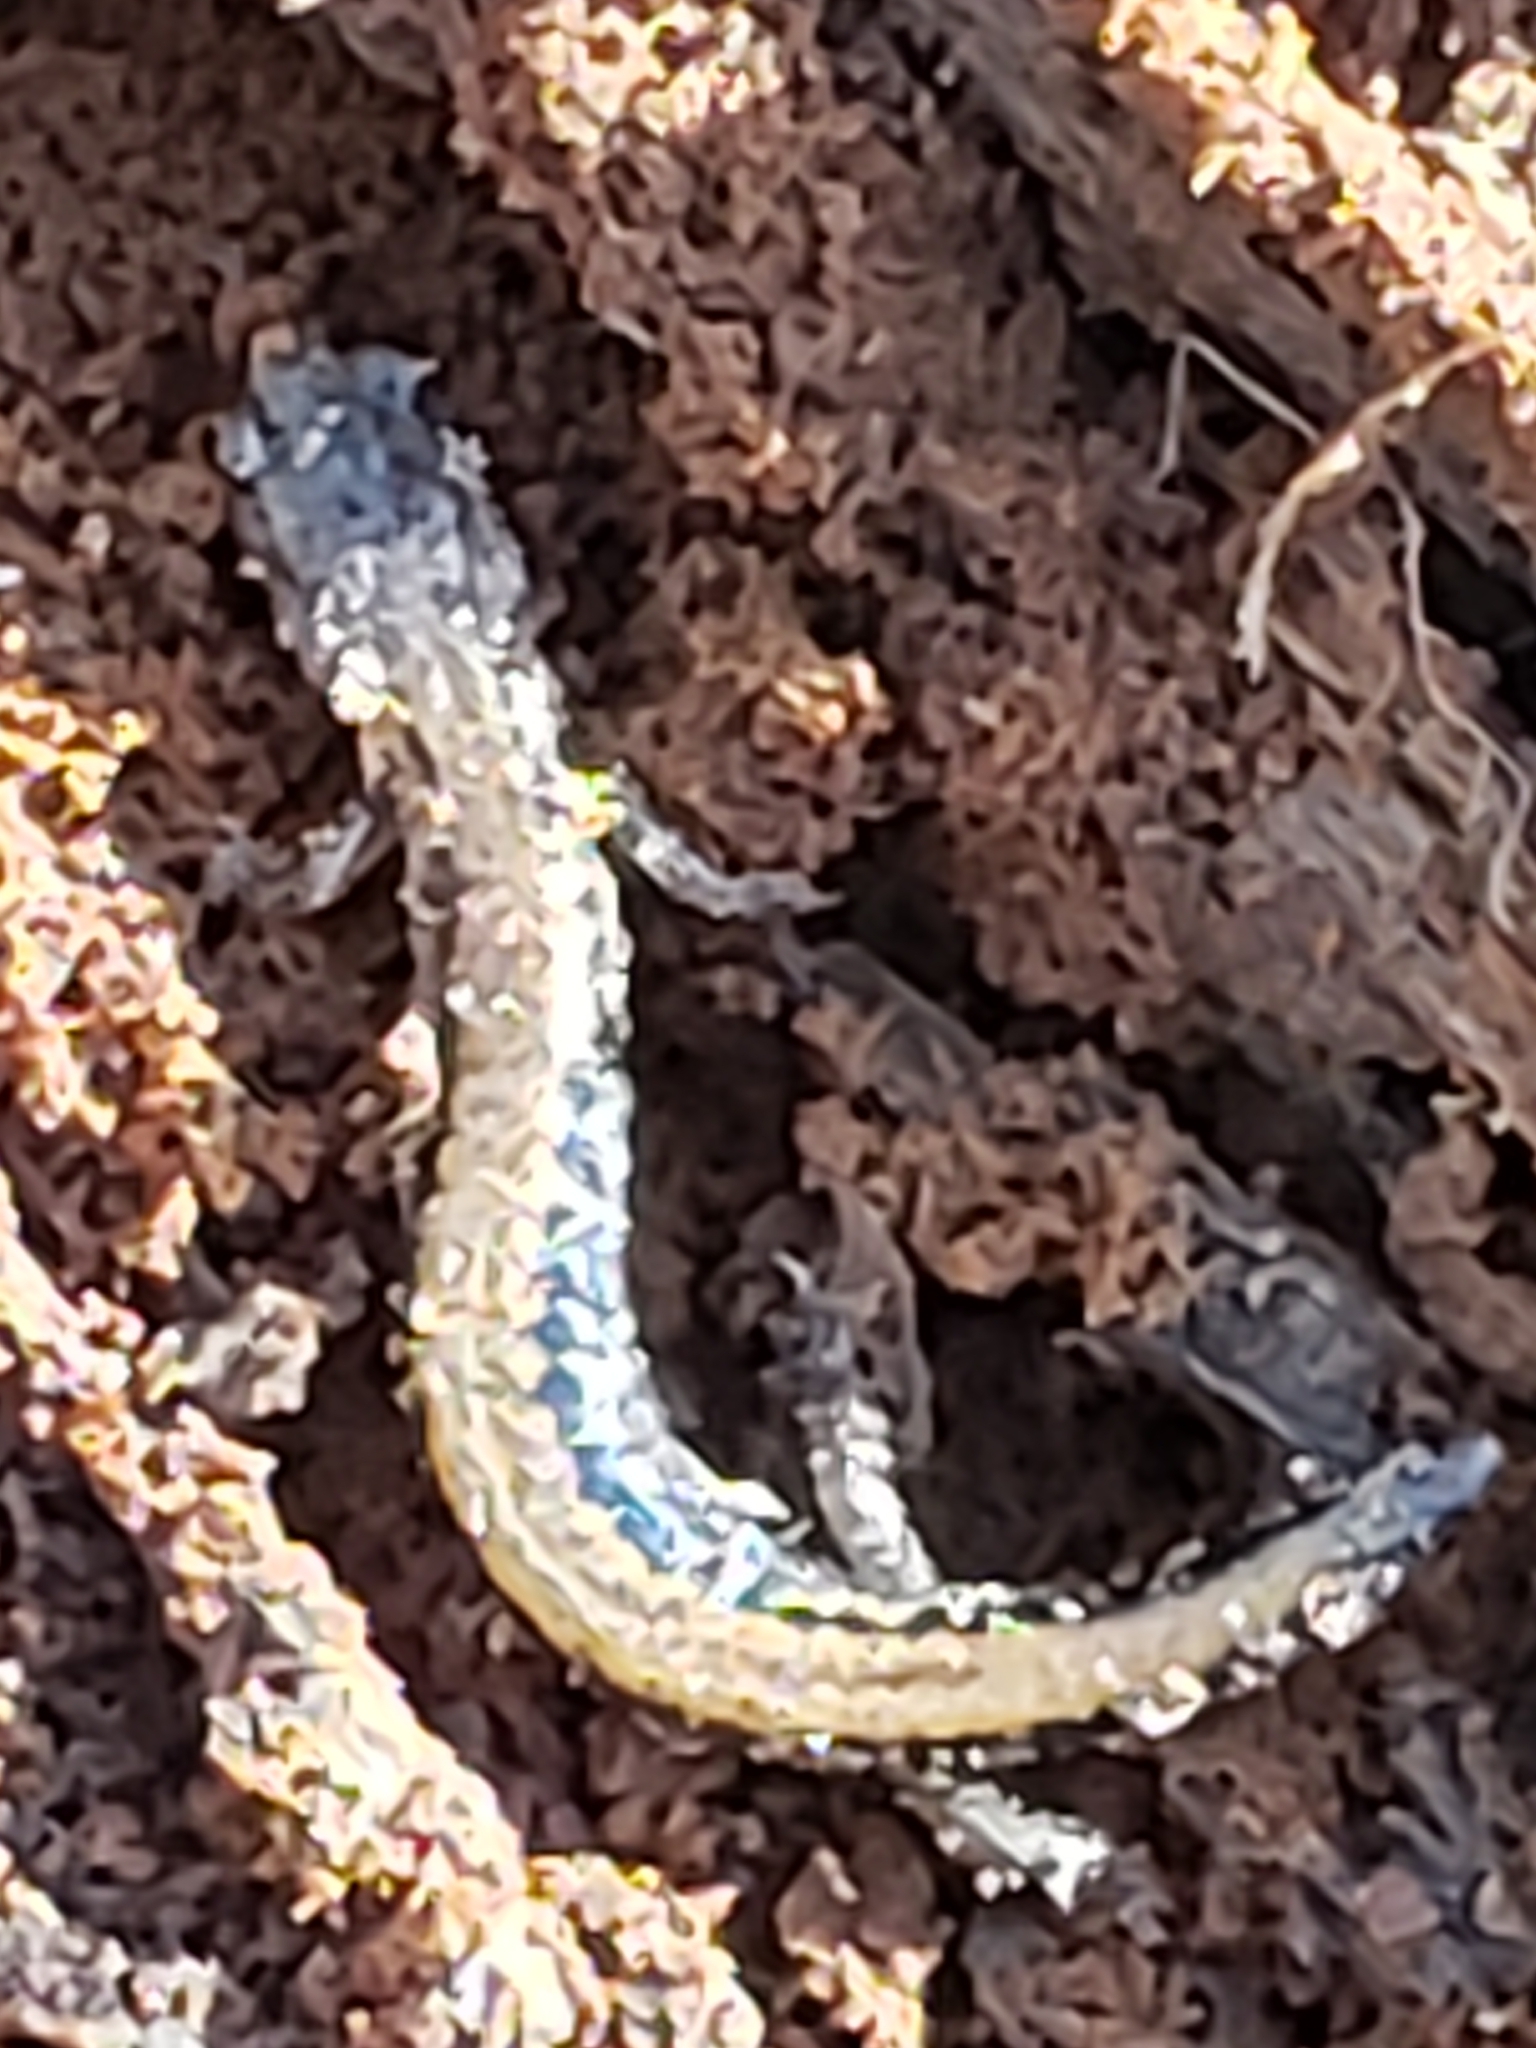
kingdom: Animalia
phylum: Chordata
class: Amphibia
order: Caudata
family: Plethodontidae
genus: Plethodon
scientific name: Plethodon cinereus
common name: Redback salamander
